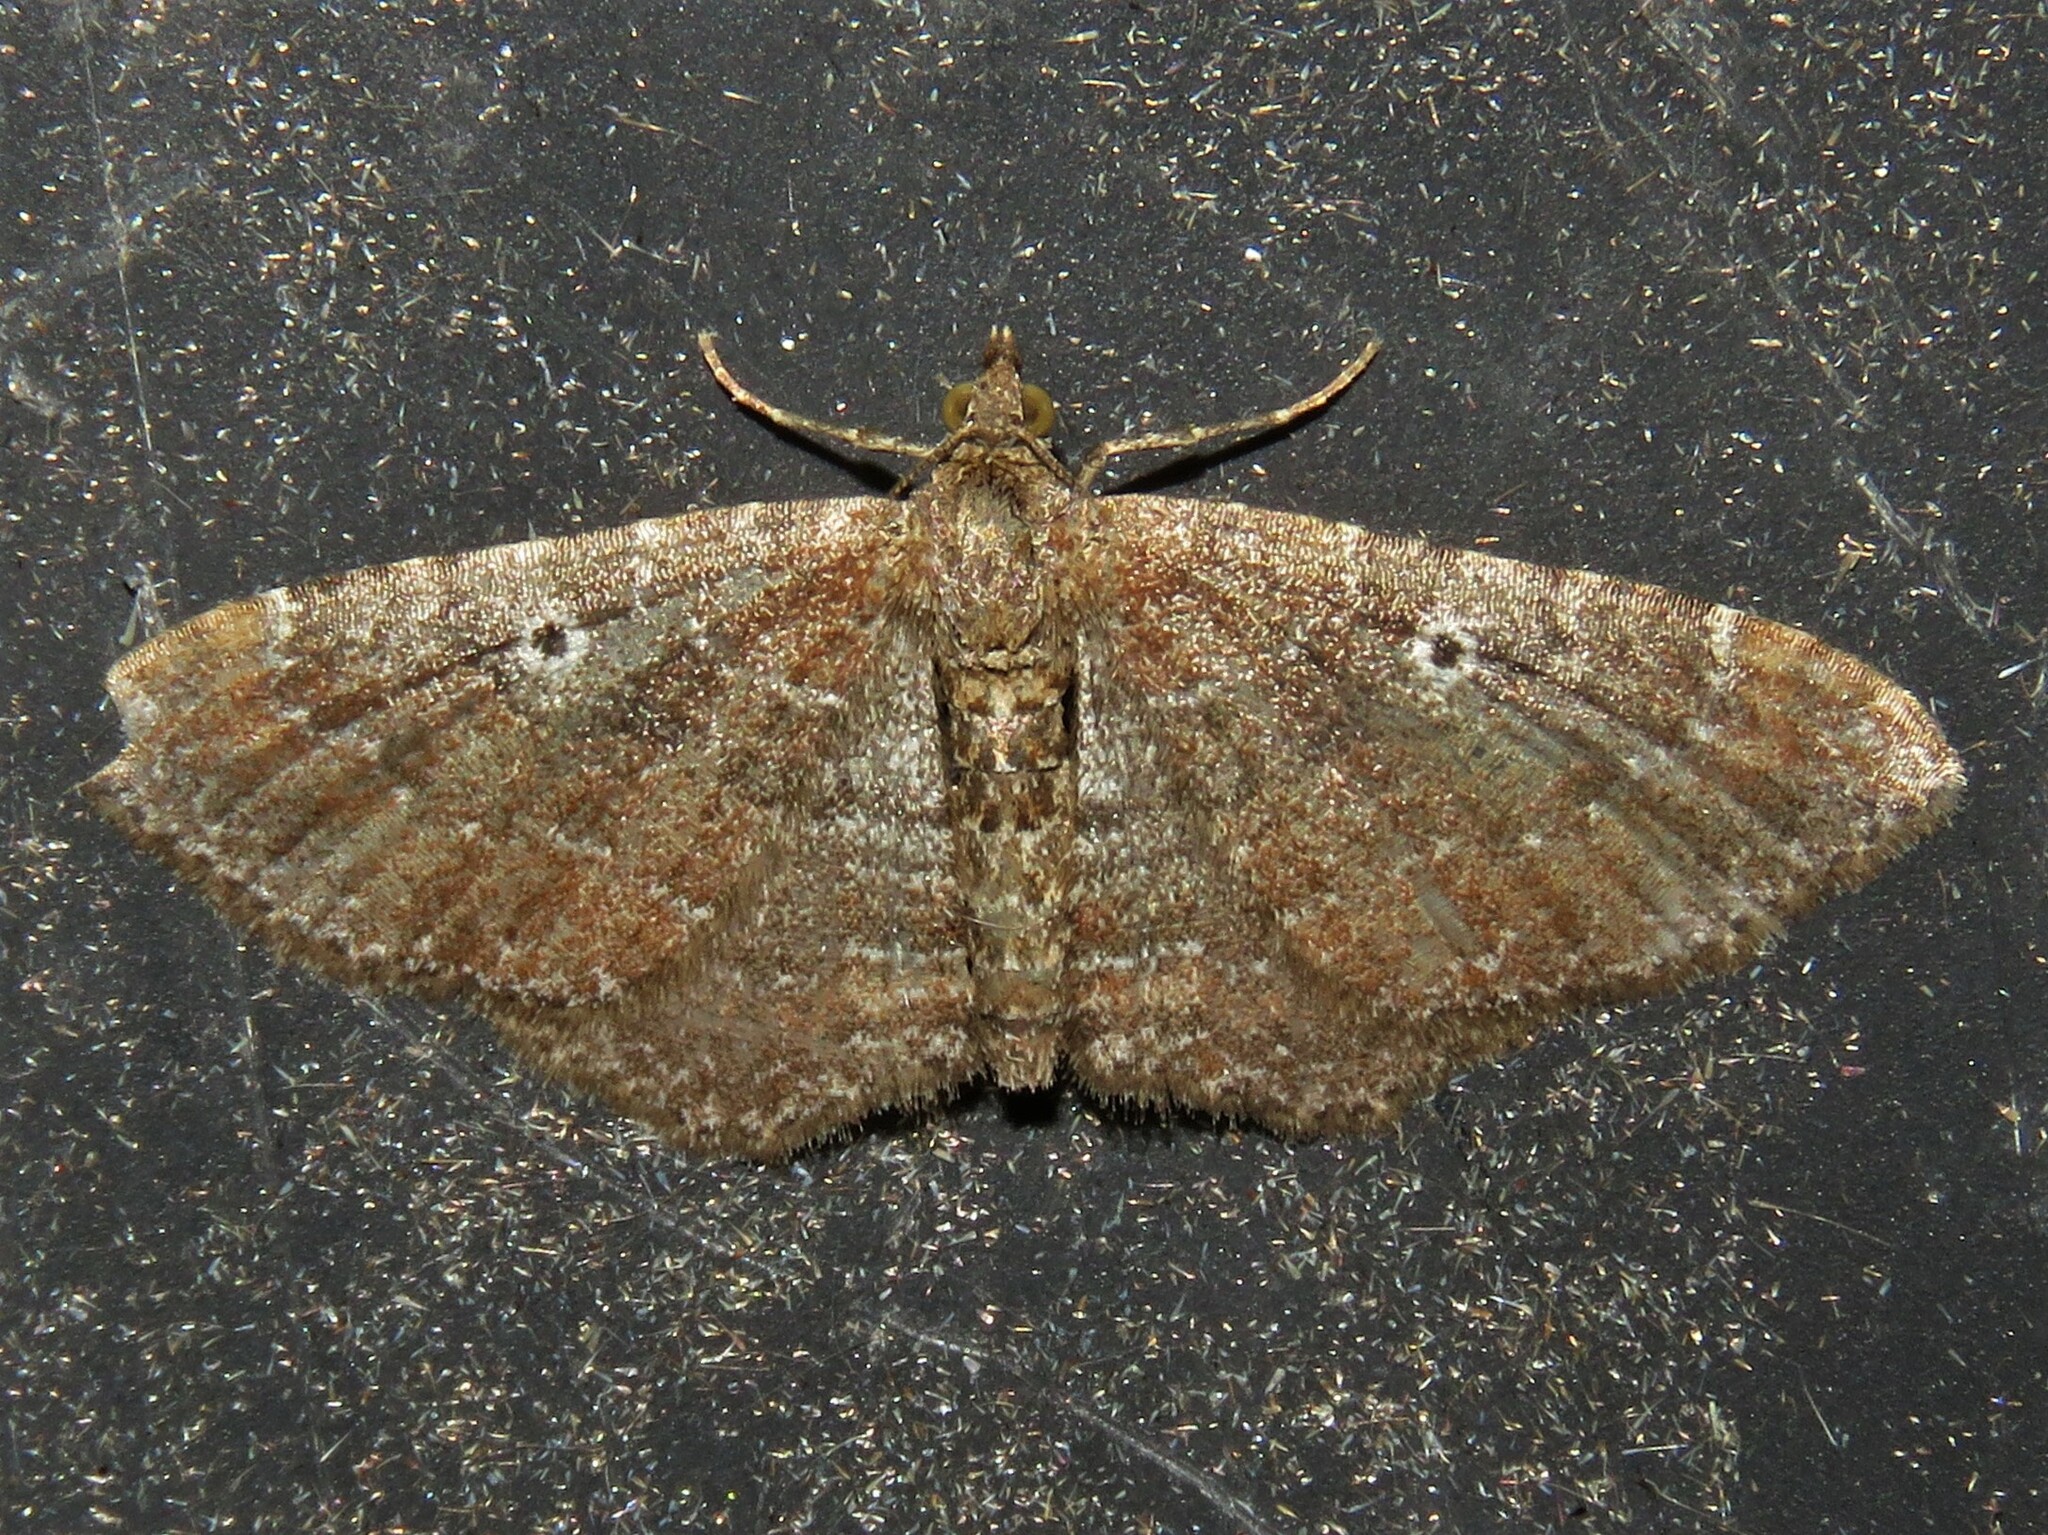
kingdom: Animalia
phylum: Arthropoda
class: Insecta
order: Lepidoptera
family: Geometridae
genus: Orthonama
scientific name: Orthonama obstipata
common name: The gem
